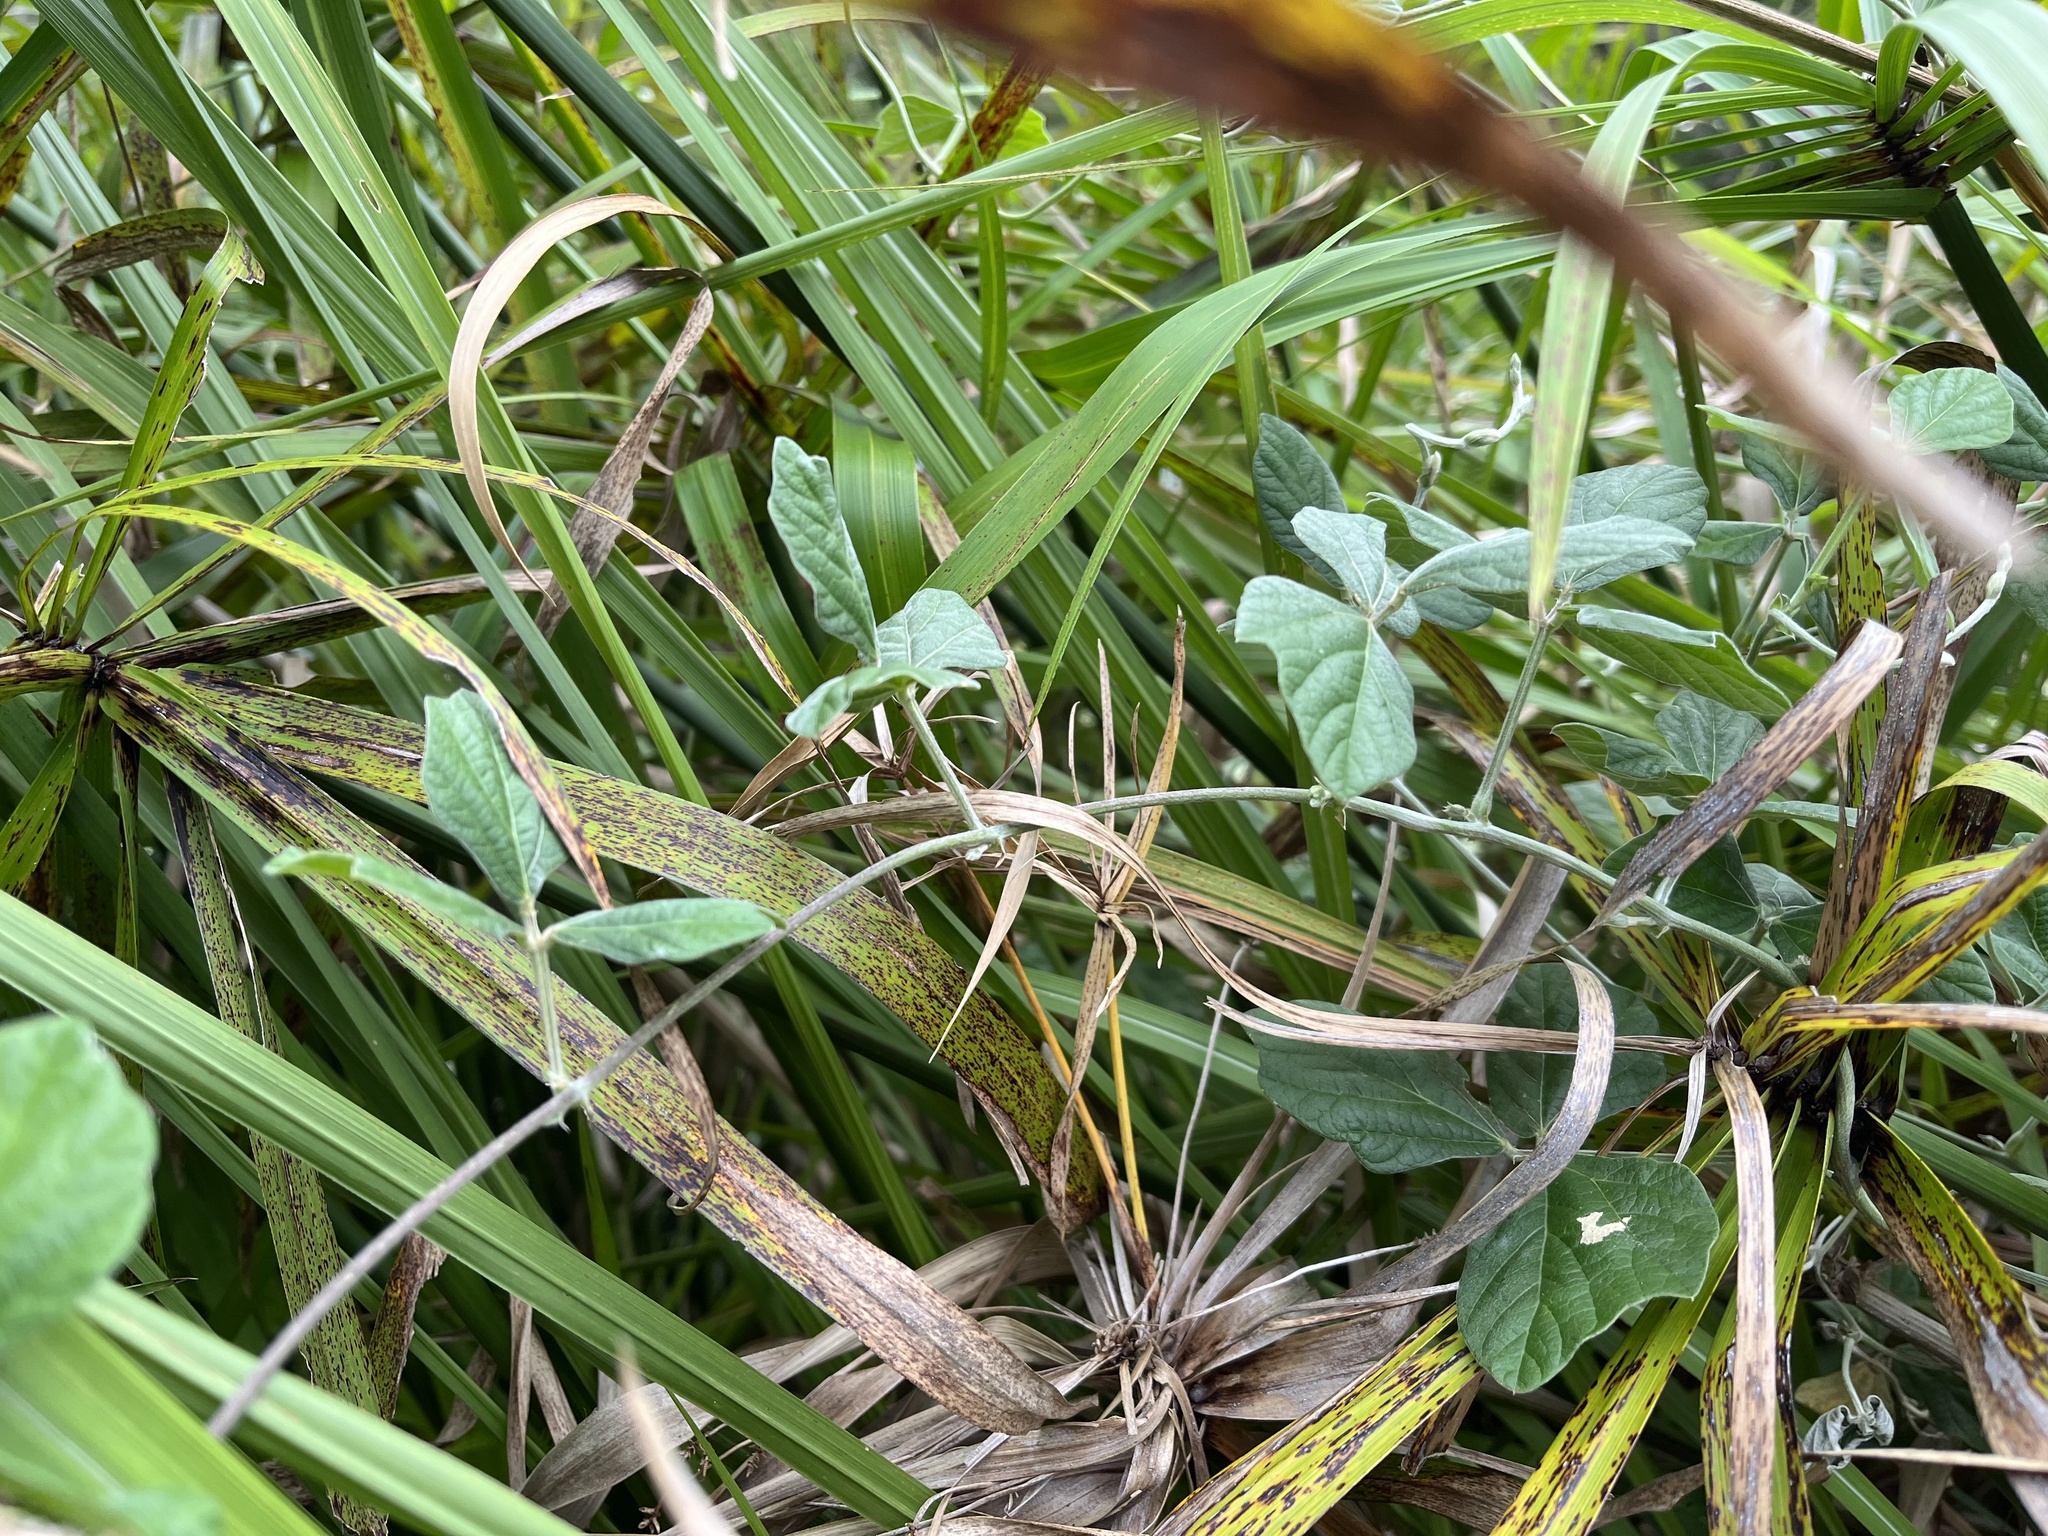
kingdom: Plantae
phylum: Tracheophyta
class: Magnoliopsida
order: Fabales
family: Fabaceae
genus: Macroptilium
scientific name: Macroptilium atropurpureum
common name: Purple bushbean
